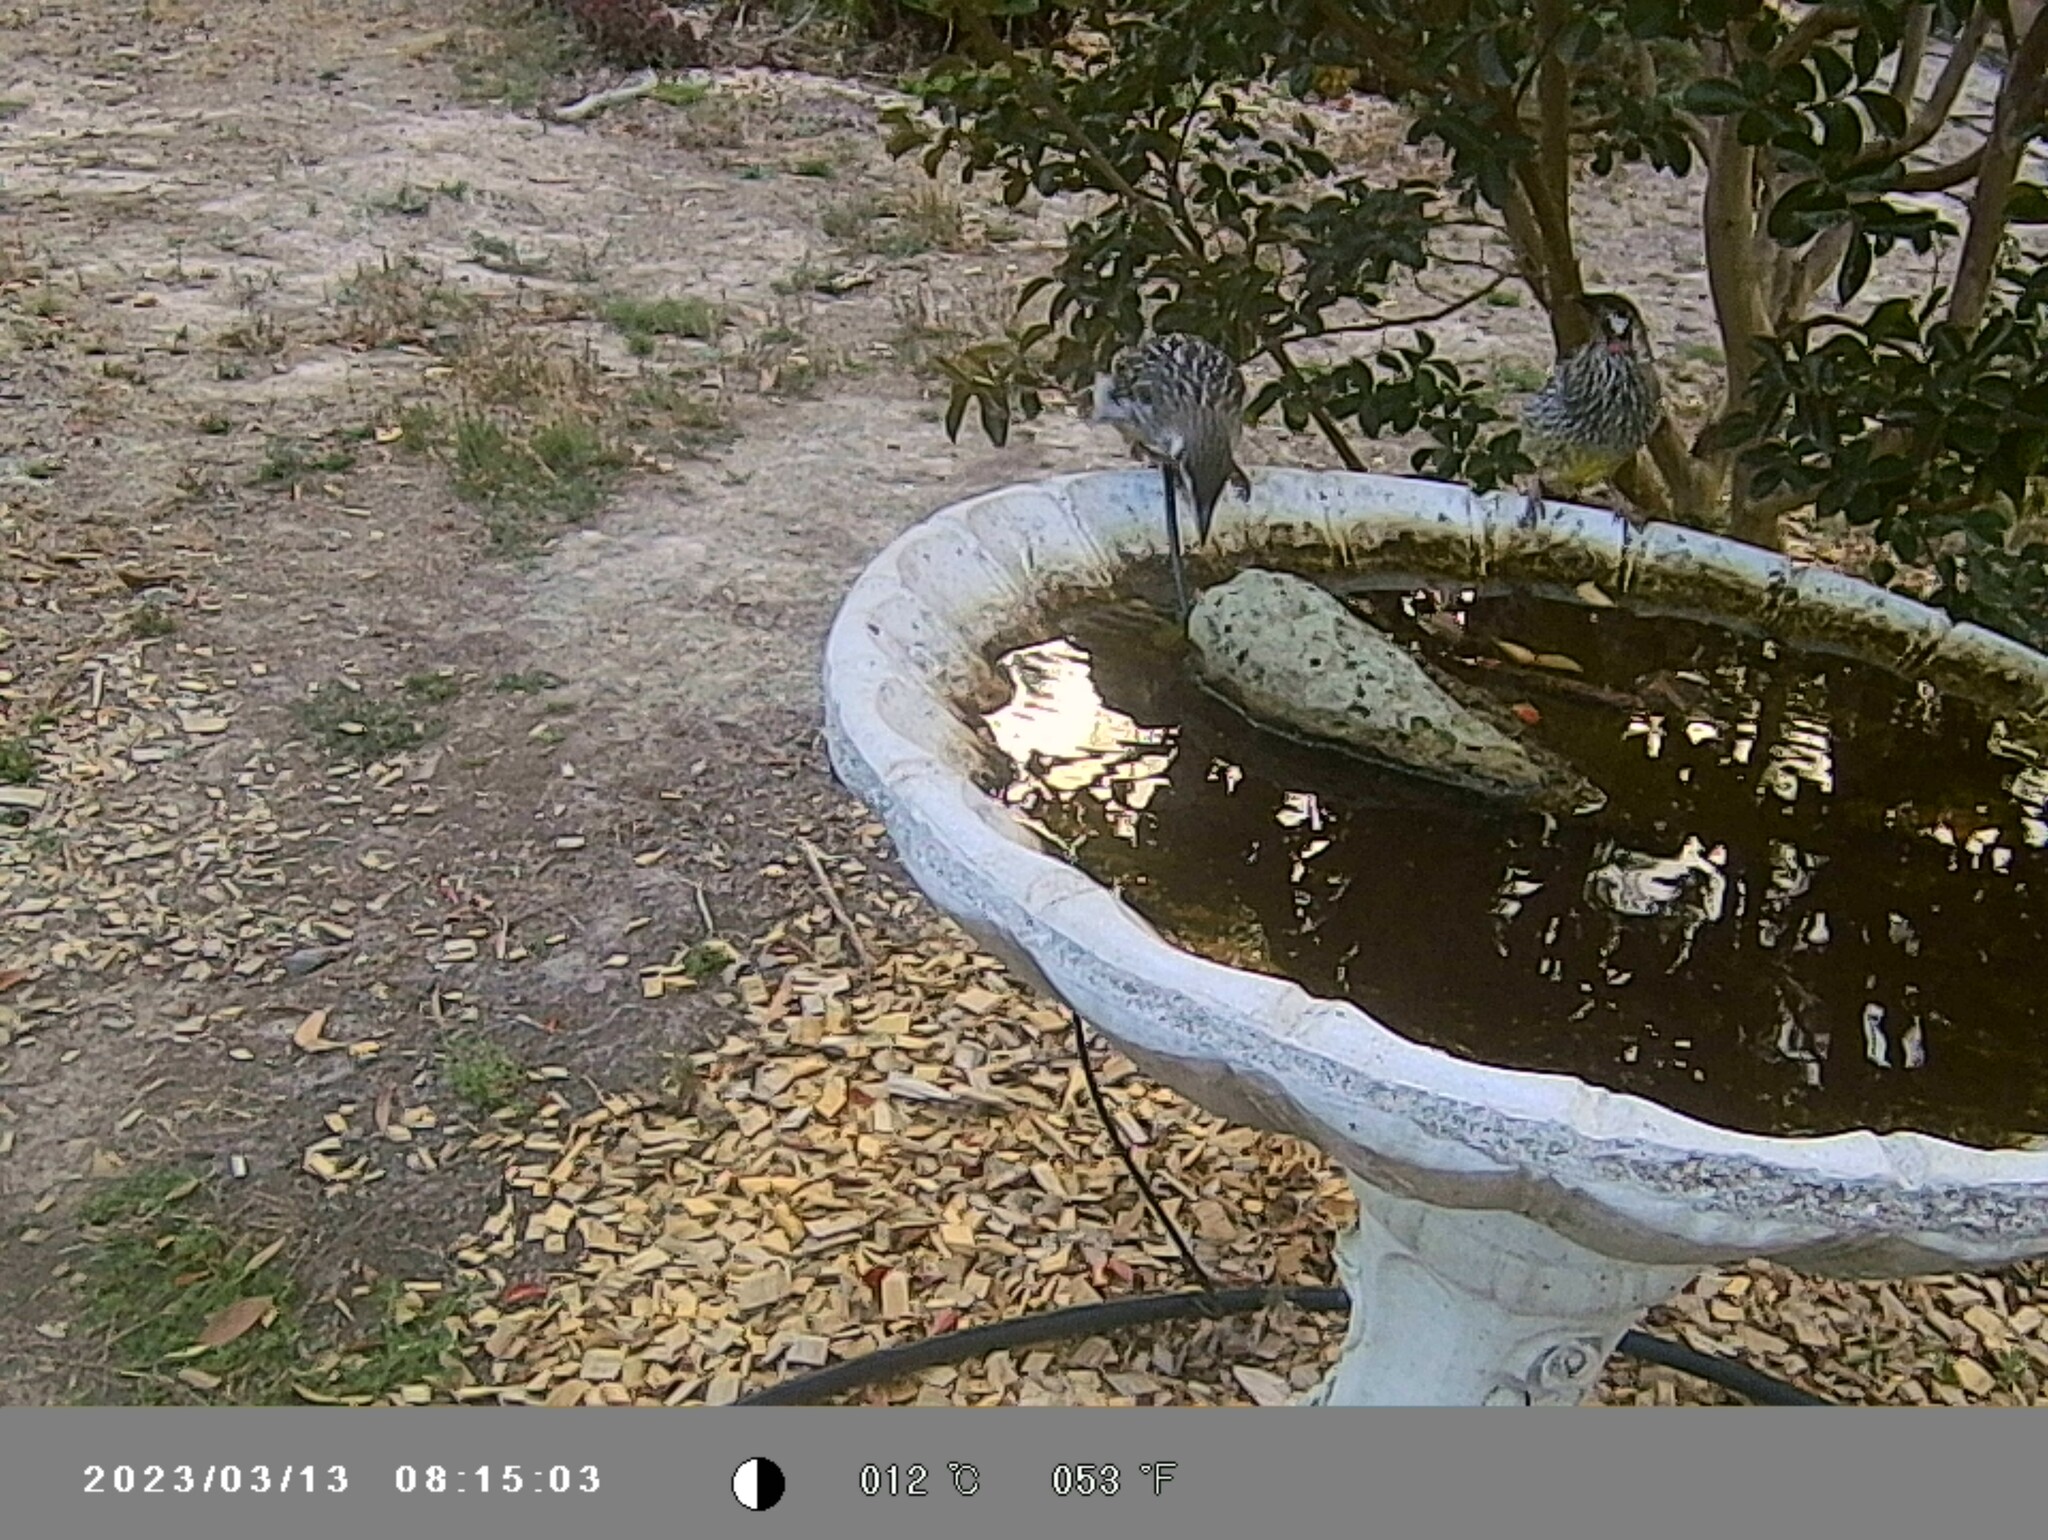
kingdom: Animalia
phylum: Chordata
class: Aves
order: Passeriformes
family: Meliphagidae
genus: Anthochaera
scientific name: Anthochaera carunculata
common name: Red wattlebird
